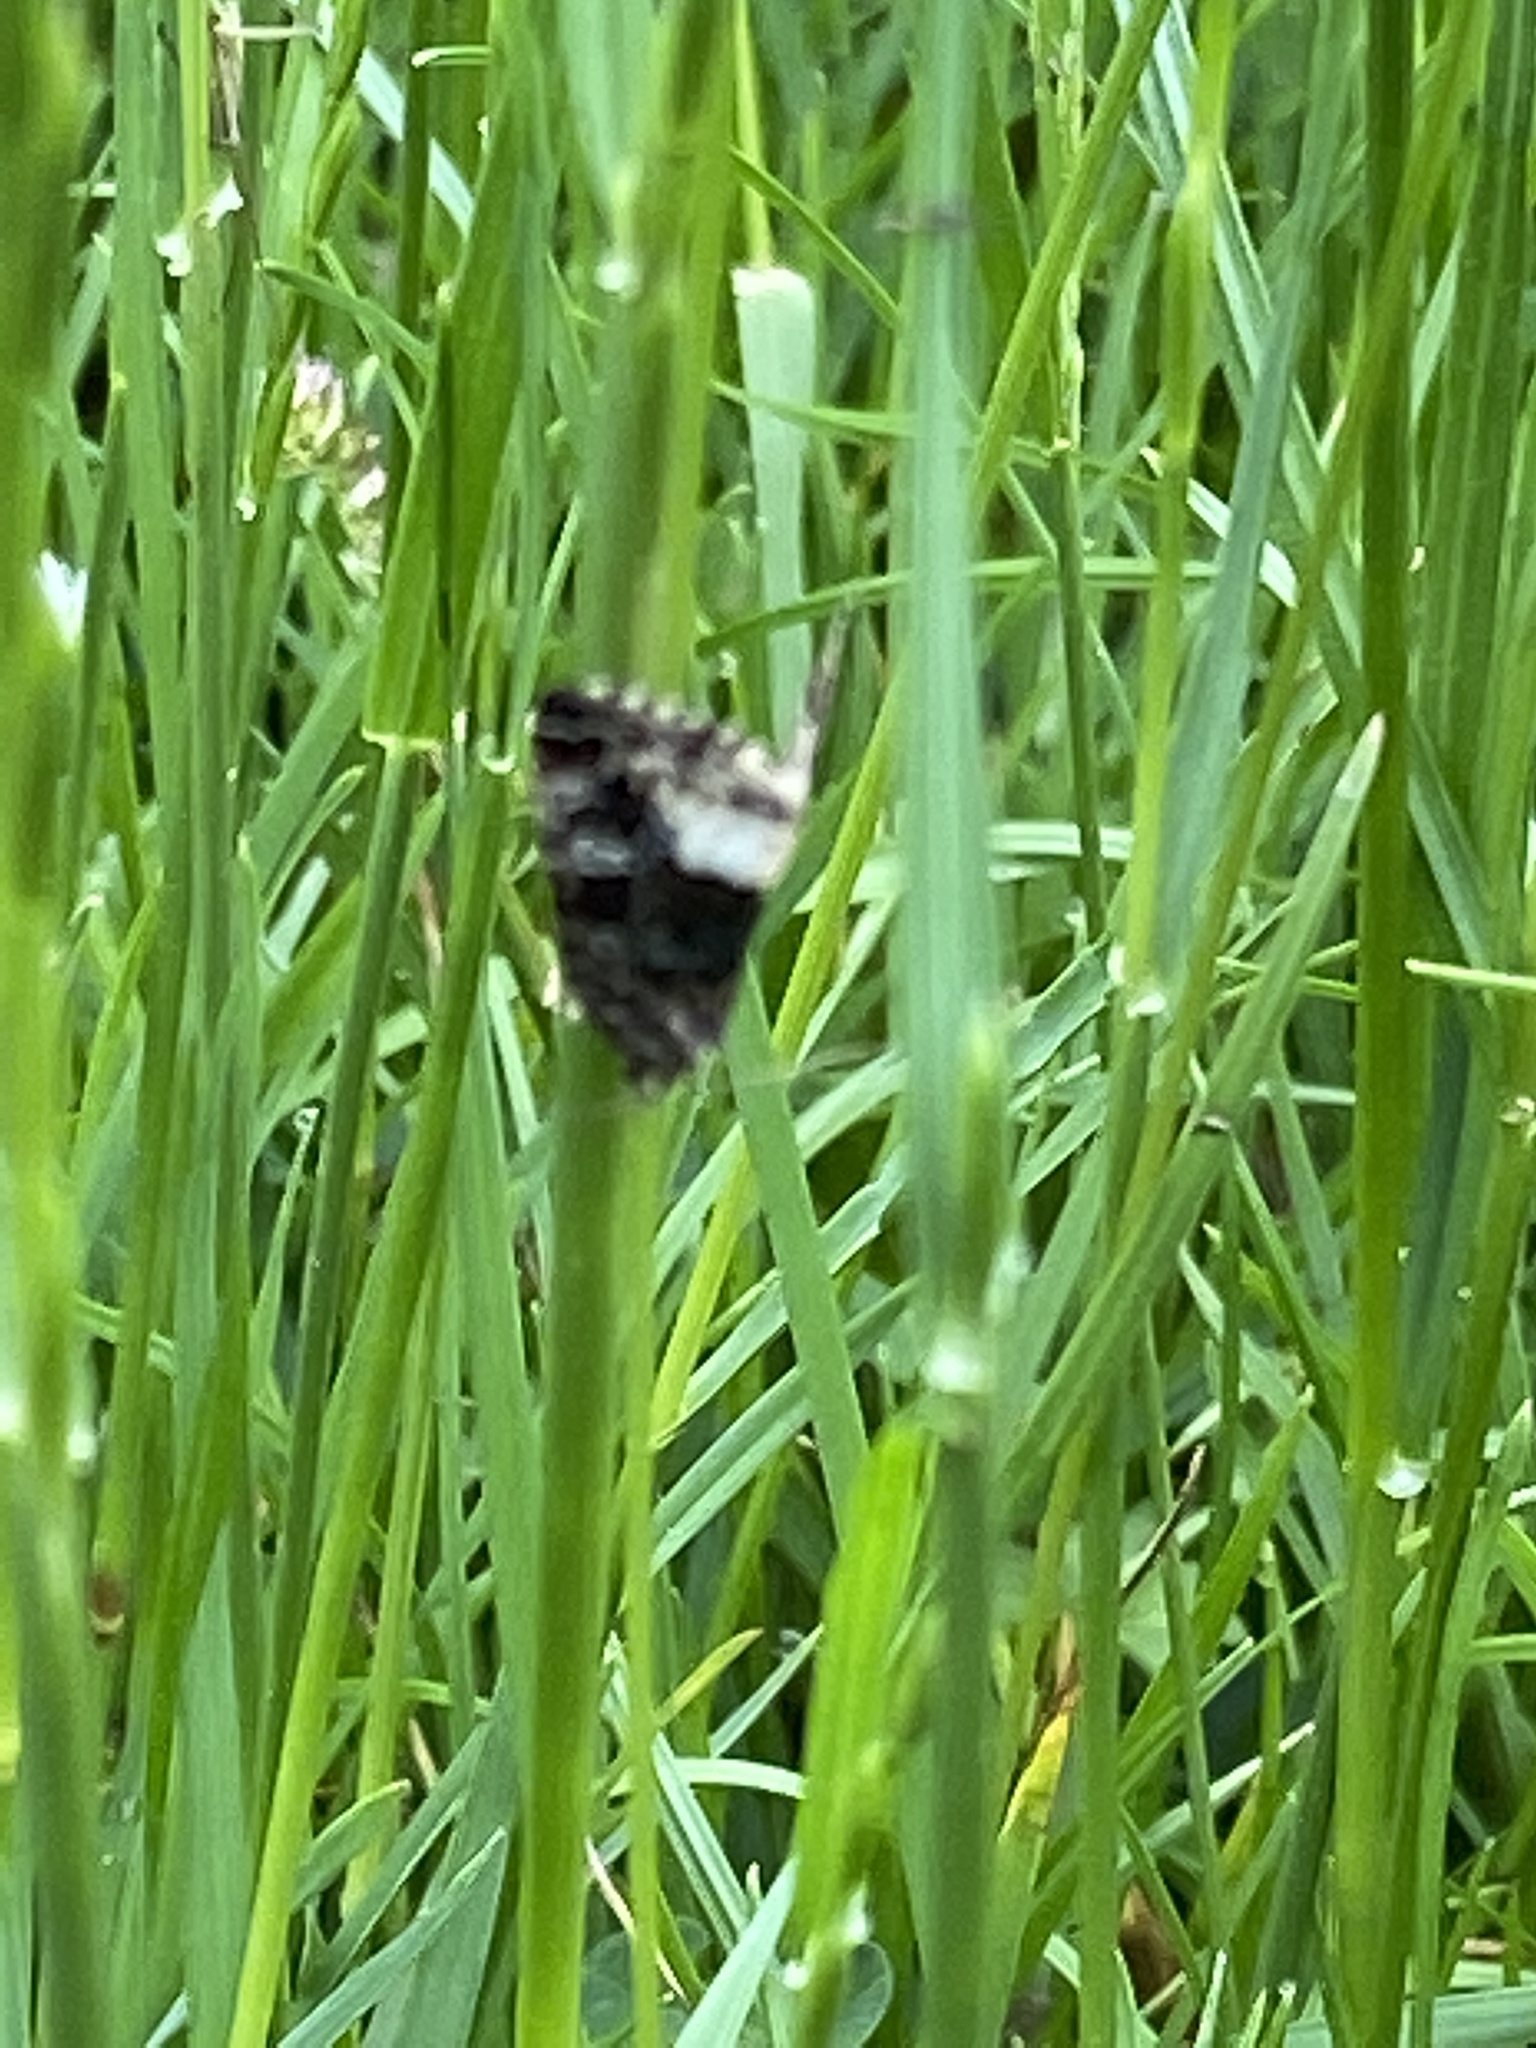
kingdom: Animalia
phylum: Arthropoda
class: Insecta
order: Lepidoptera
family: Noctuidae
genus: Deltote
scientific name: Deltote pygarga
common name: Marbled white spot
